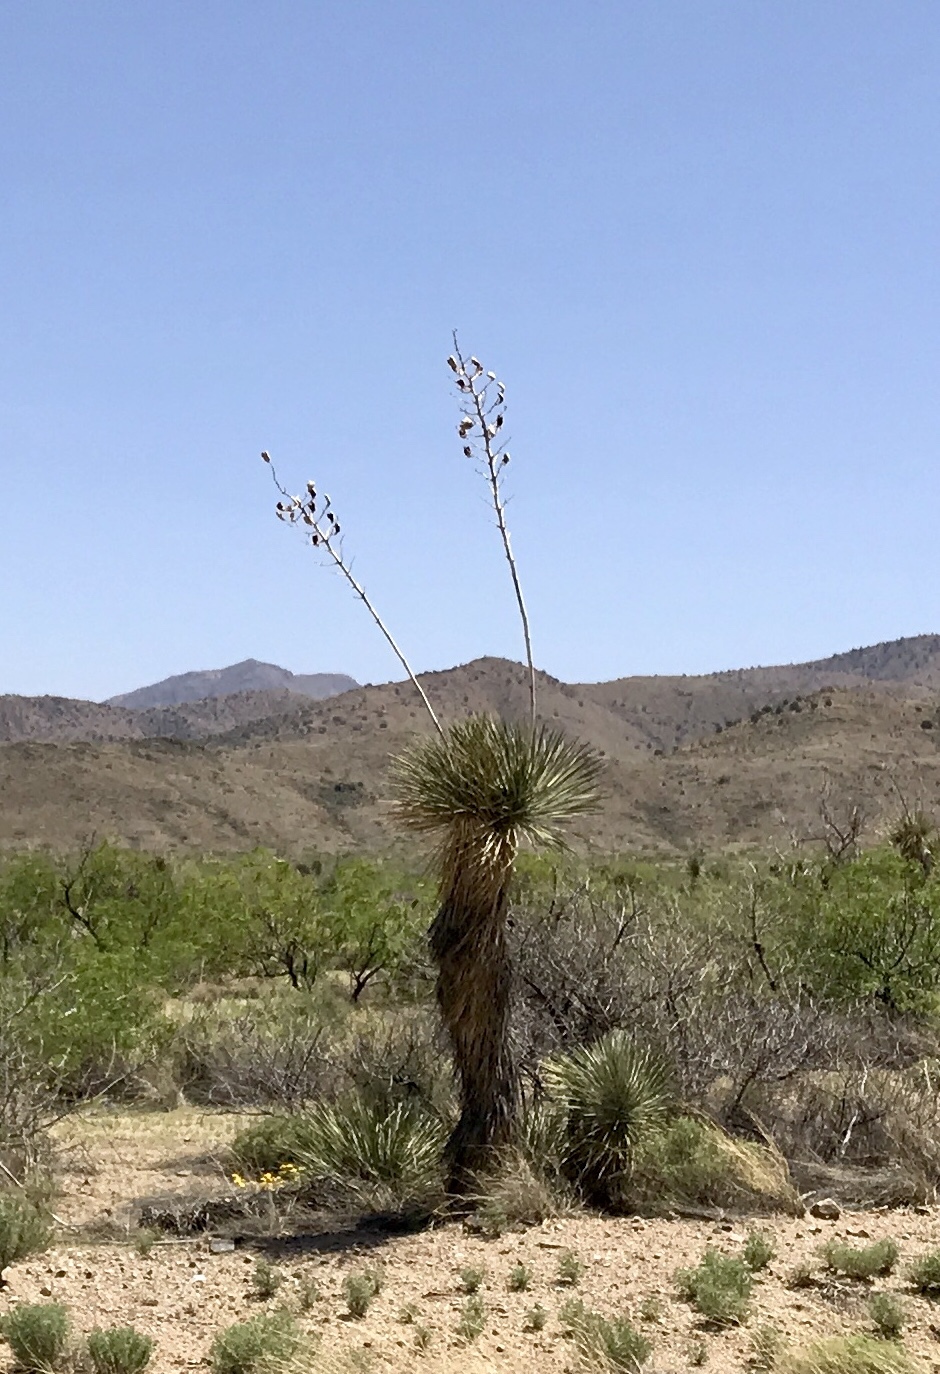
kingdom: Plantae
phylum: Tracheophyta
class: Liliopsida
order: Asparagales
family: Asparagaceae
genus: Yucca
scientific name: Yucca elata
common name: Palmella
